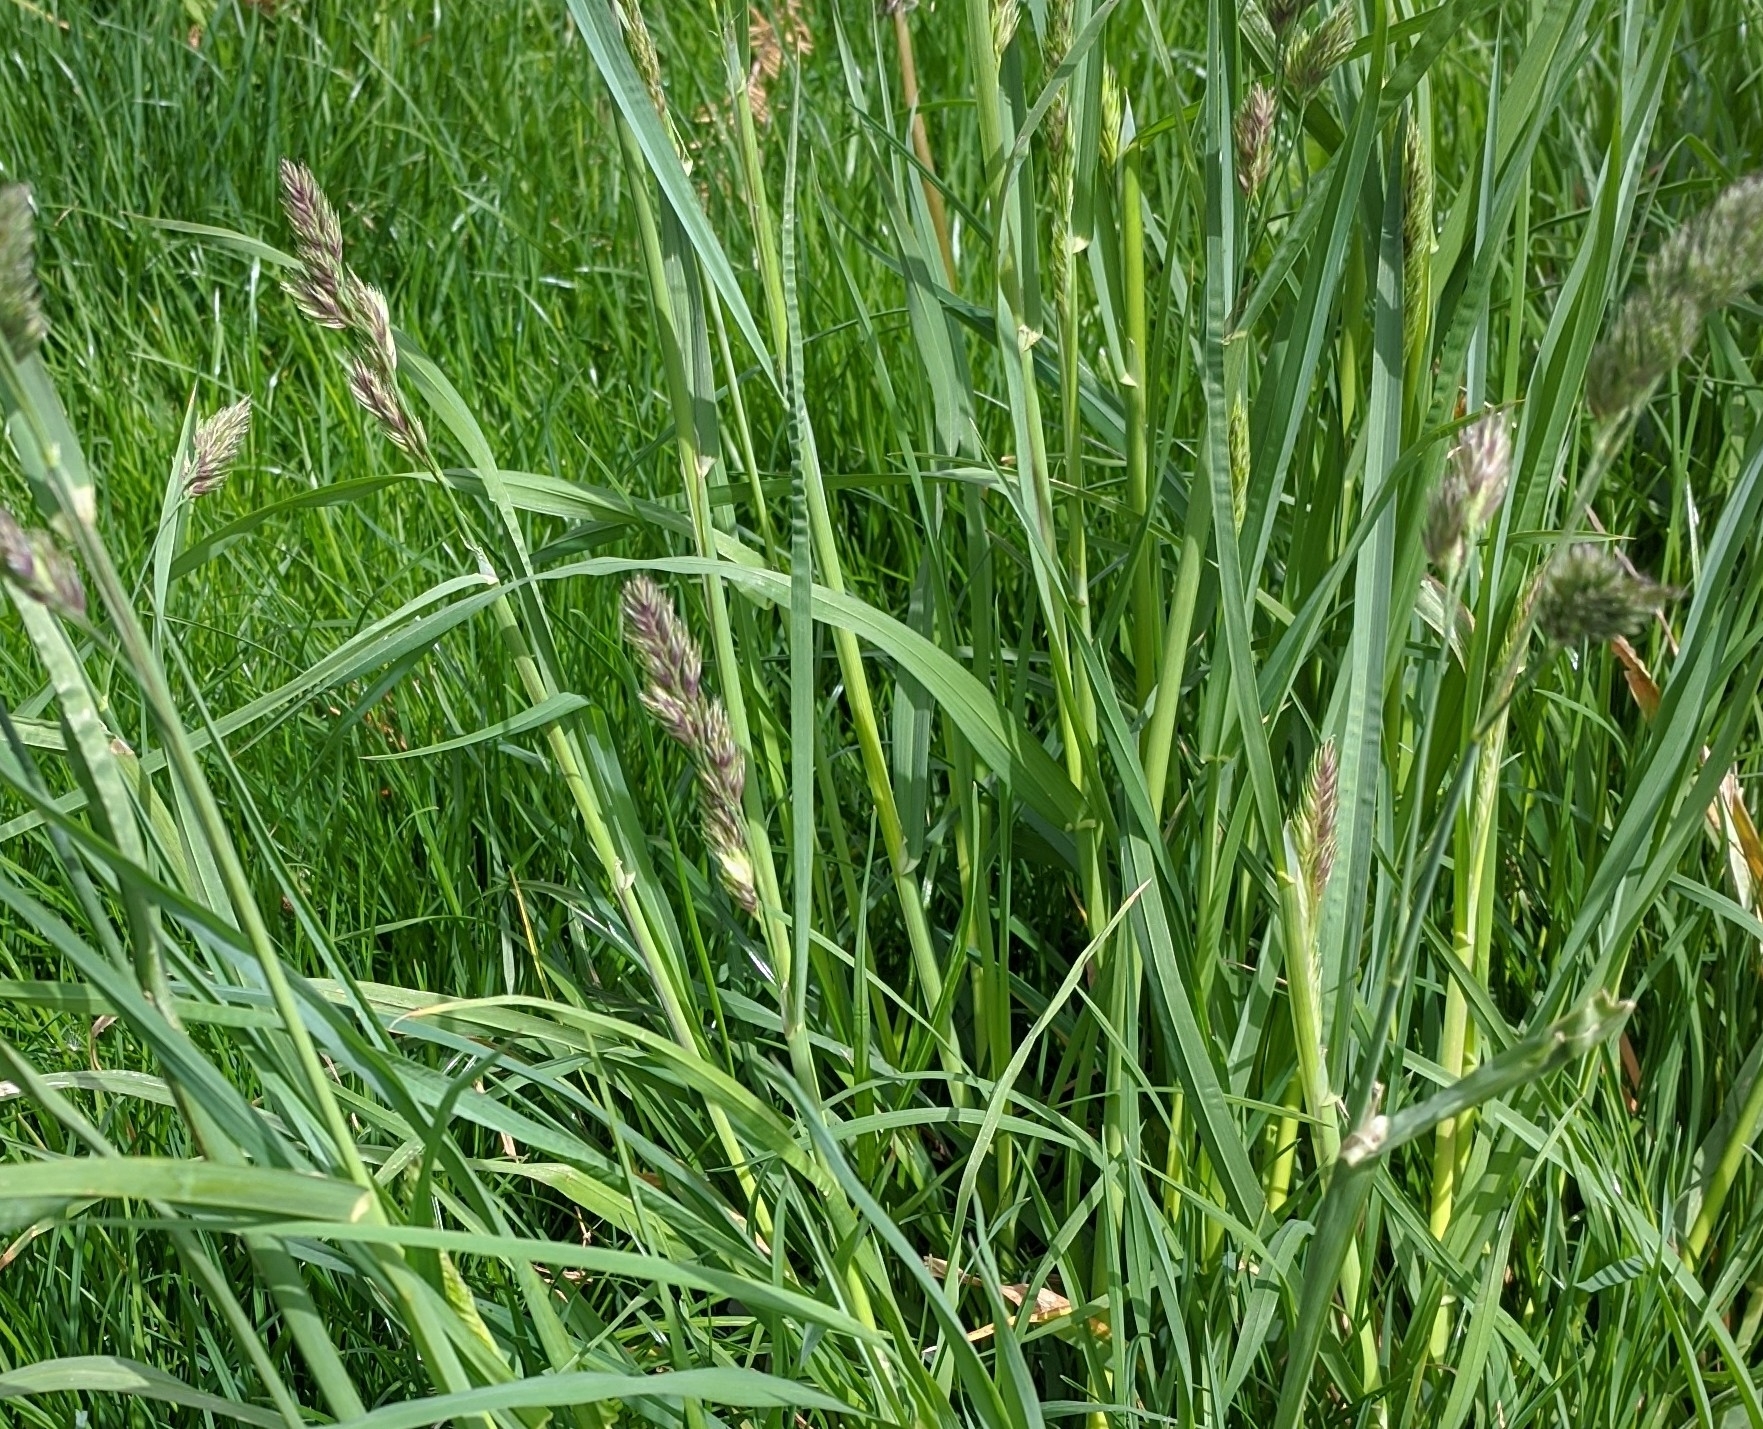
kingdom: Plantae
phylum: Tracheophyta
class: Liliopsida
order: Poales
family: Poaceae
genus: Dactylis
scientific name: Dactylis glomerata
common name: Orchardgrass
